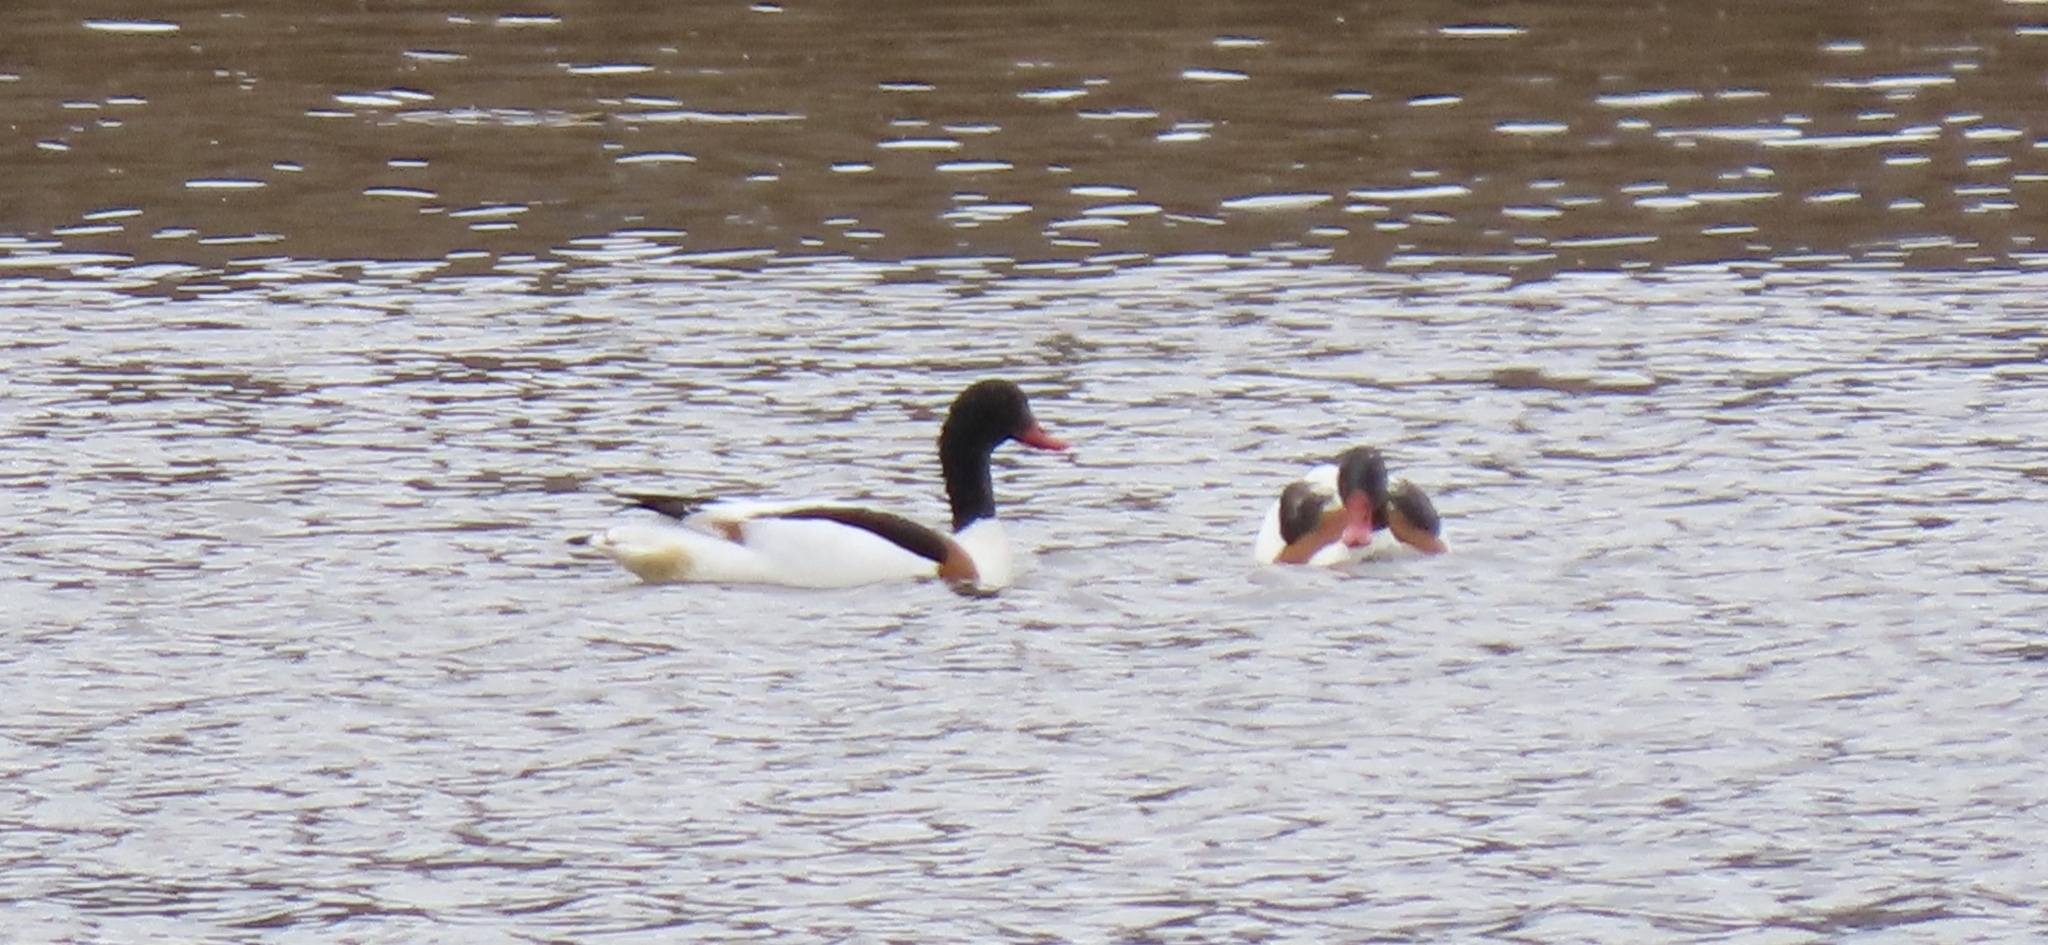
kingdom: Animalia
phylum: Chordata
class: Aves
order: Anseriformes
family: Anatidae
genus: Tadorna
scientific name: Tadorna tadorna
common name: Common shelduck
